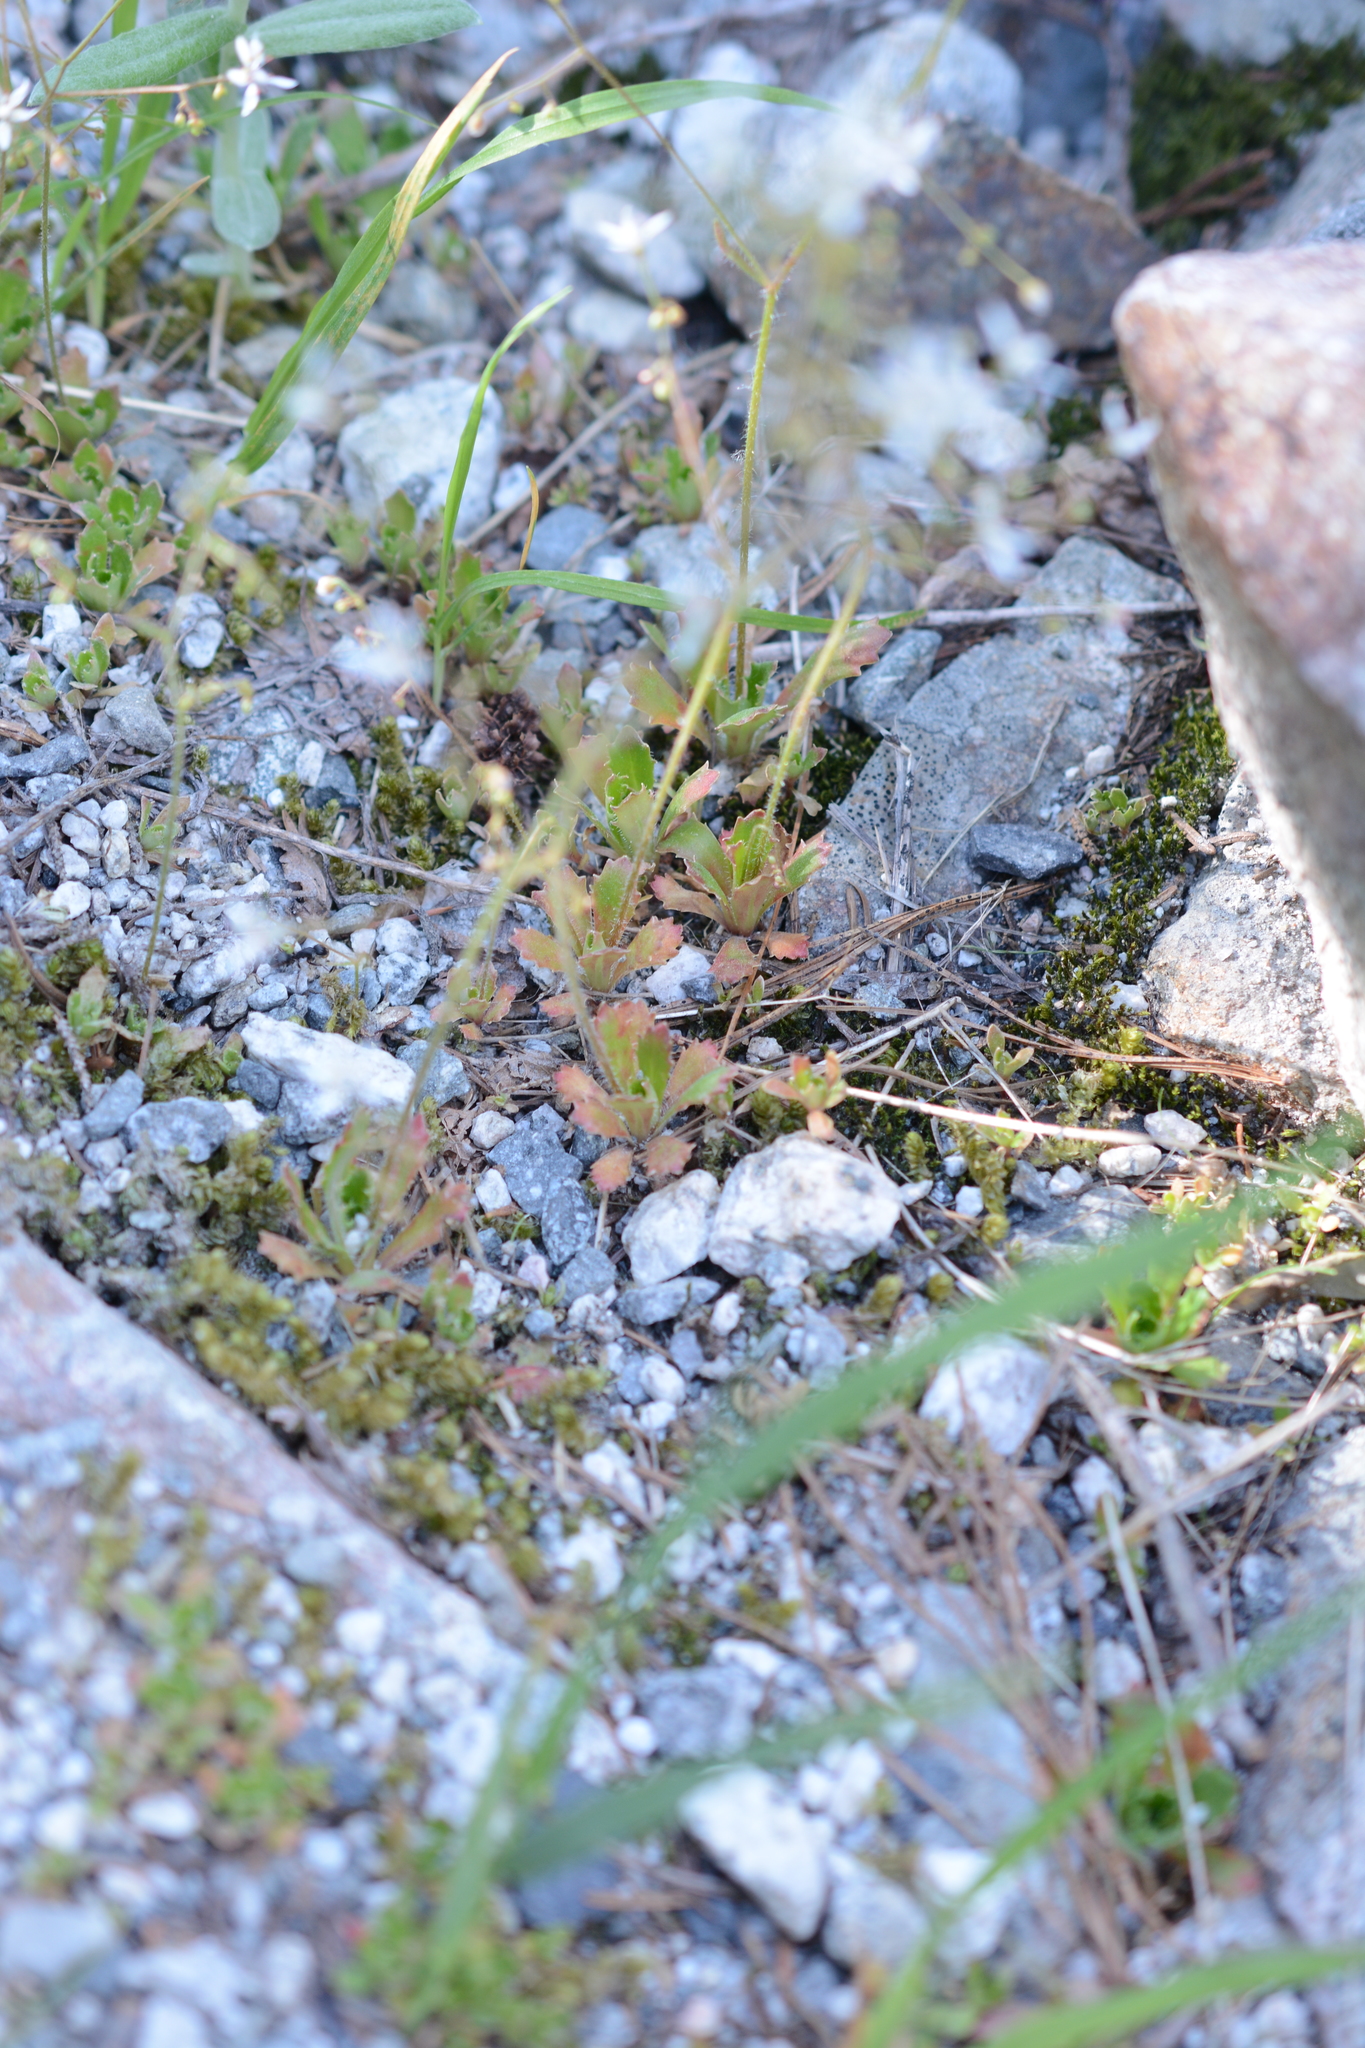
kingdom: Plantae
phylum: Tracheophyta
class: Magnoliopsida
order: Saxifragales
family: Saxifragaceae
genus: Micranthes
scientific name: Micranthes ferruginea
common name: Rusty saxifrage
